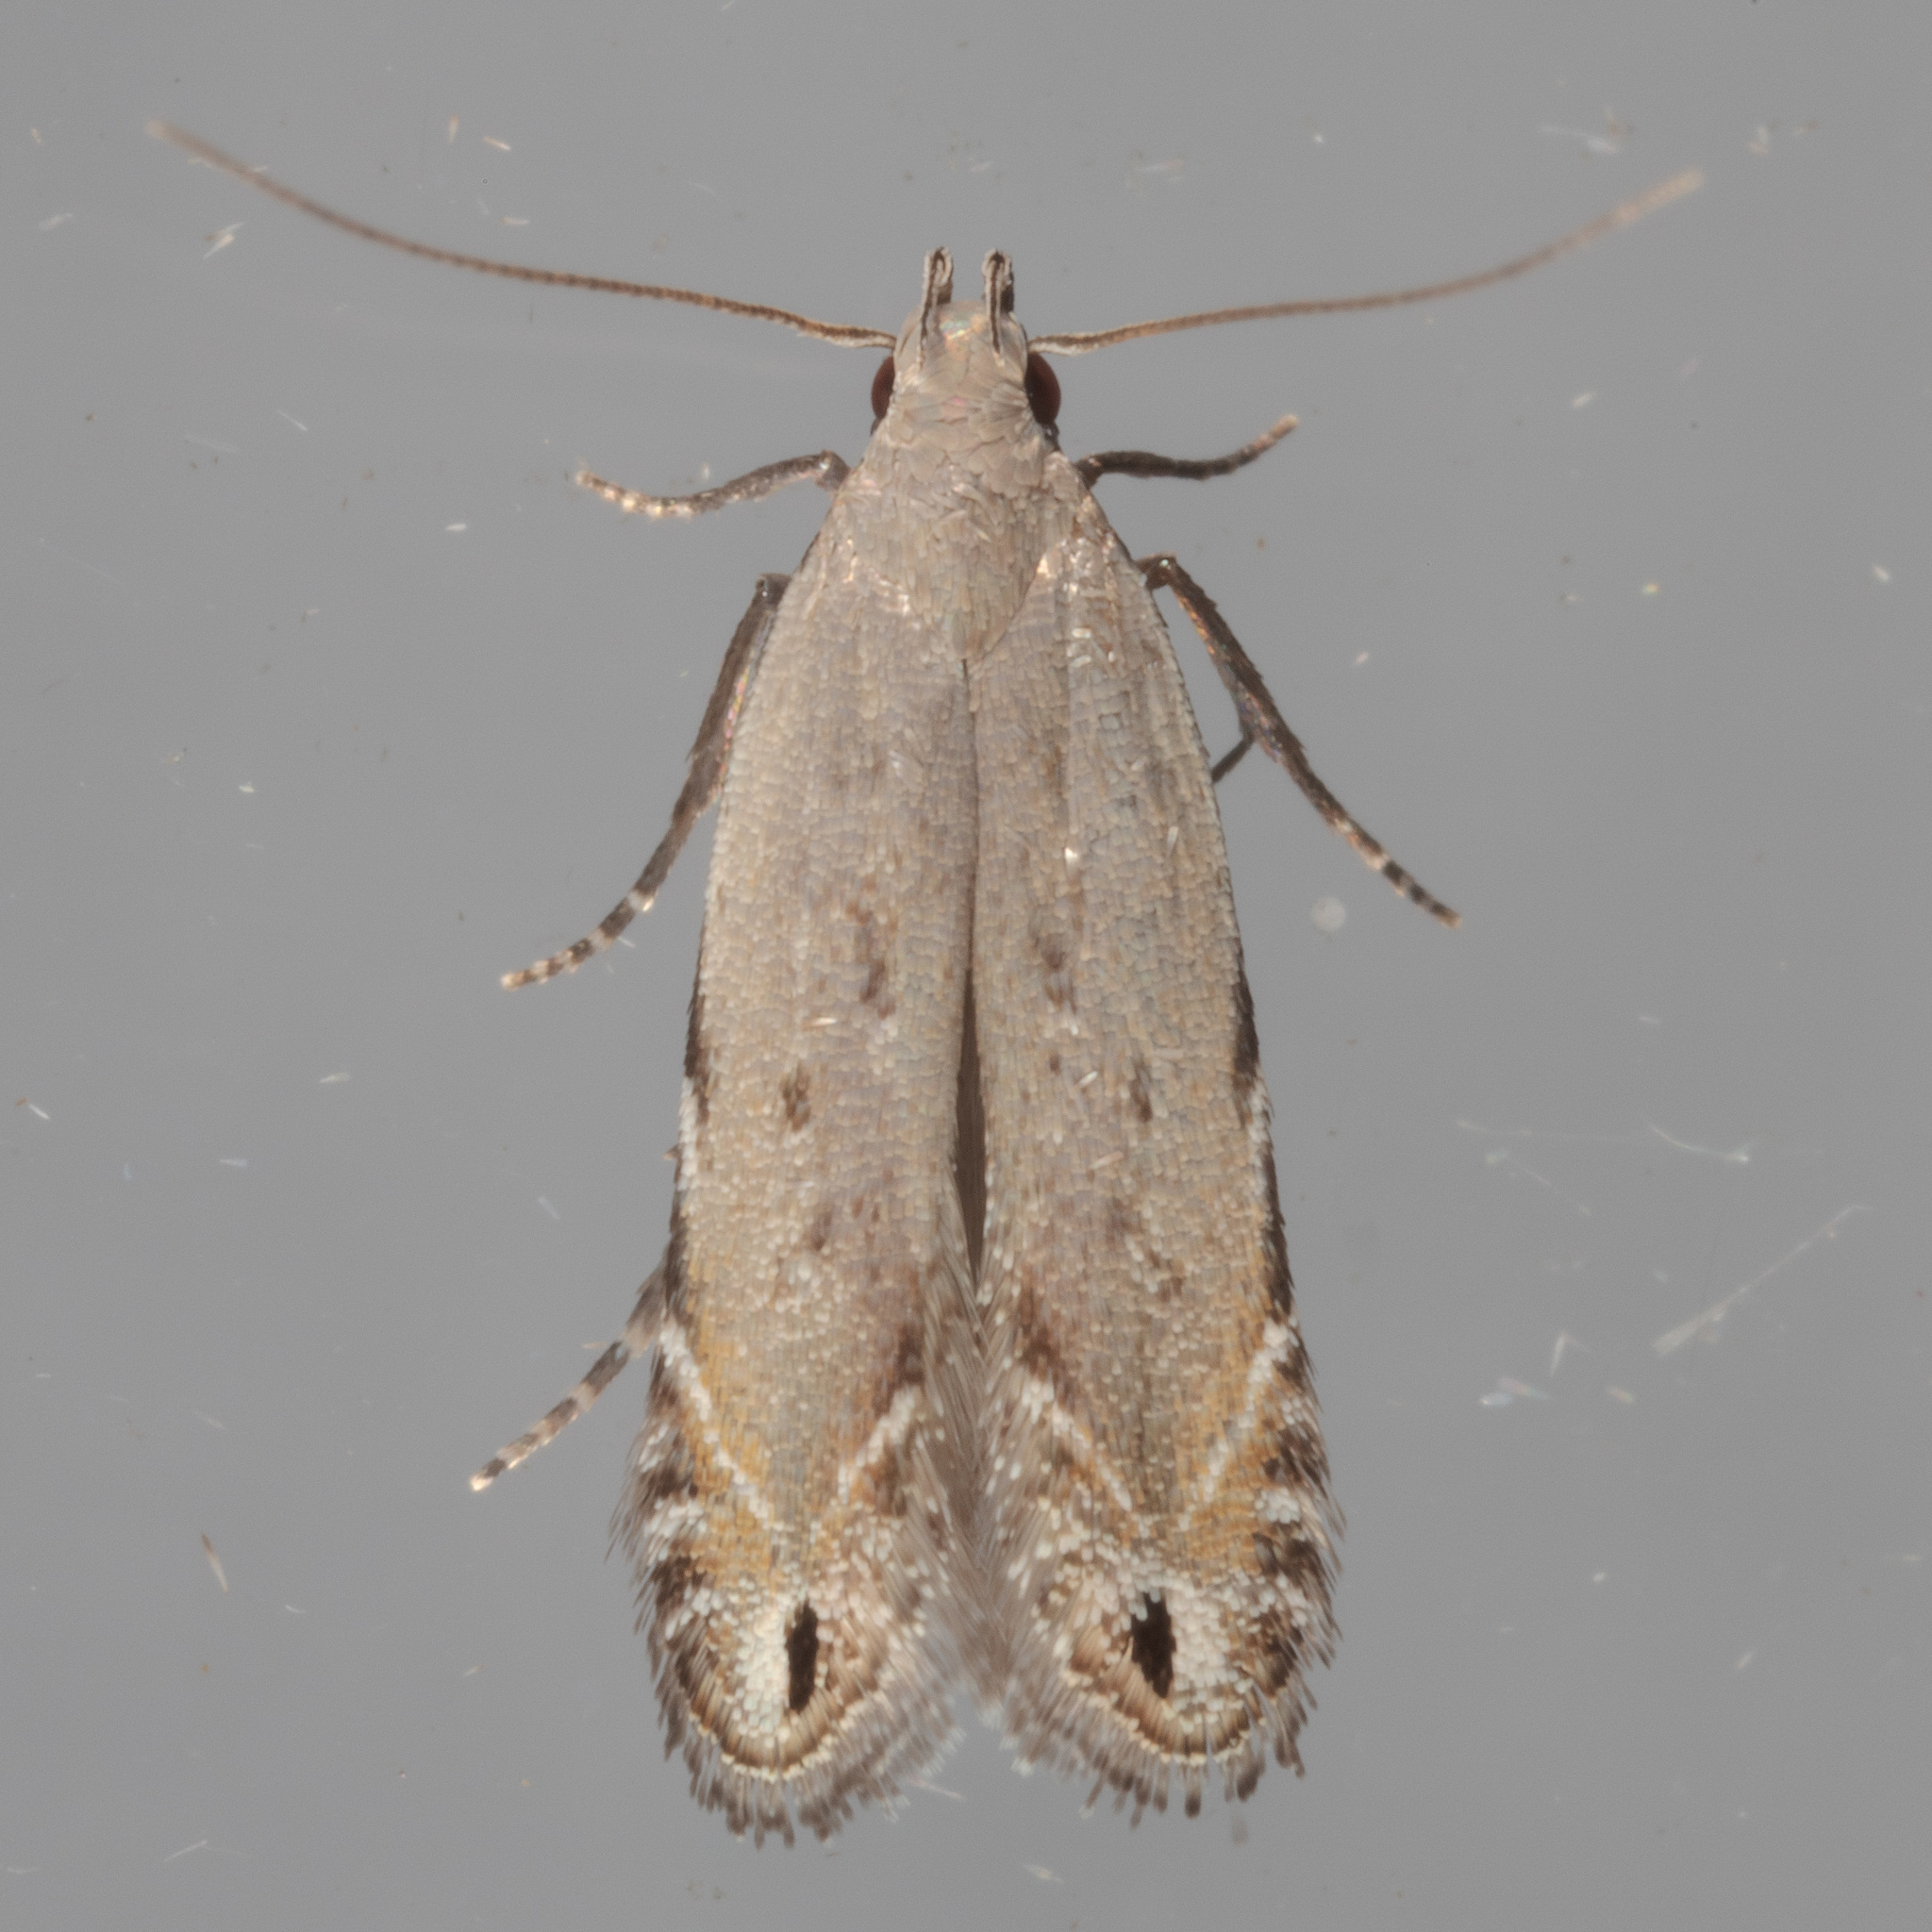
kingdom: Animalia
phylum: Arthropoda
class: Insecta
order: Lepidoptera
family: Gelechiidae
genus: Battaristis
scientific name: Battaristis concinnusella
